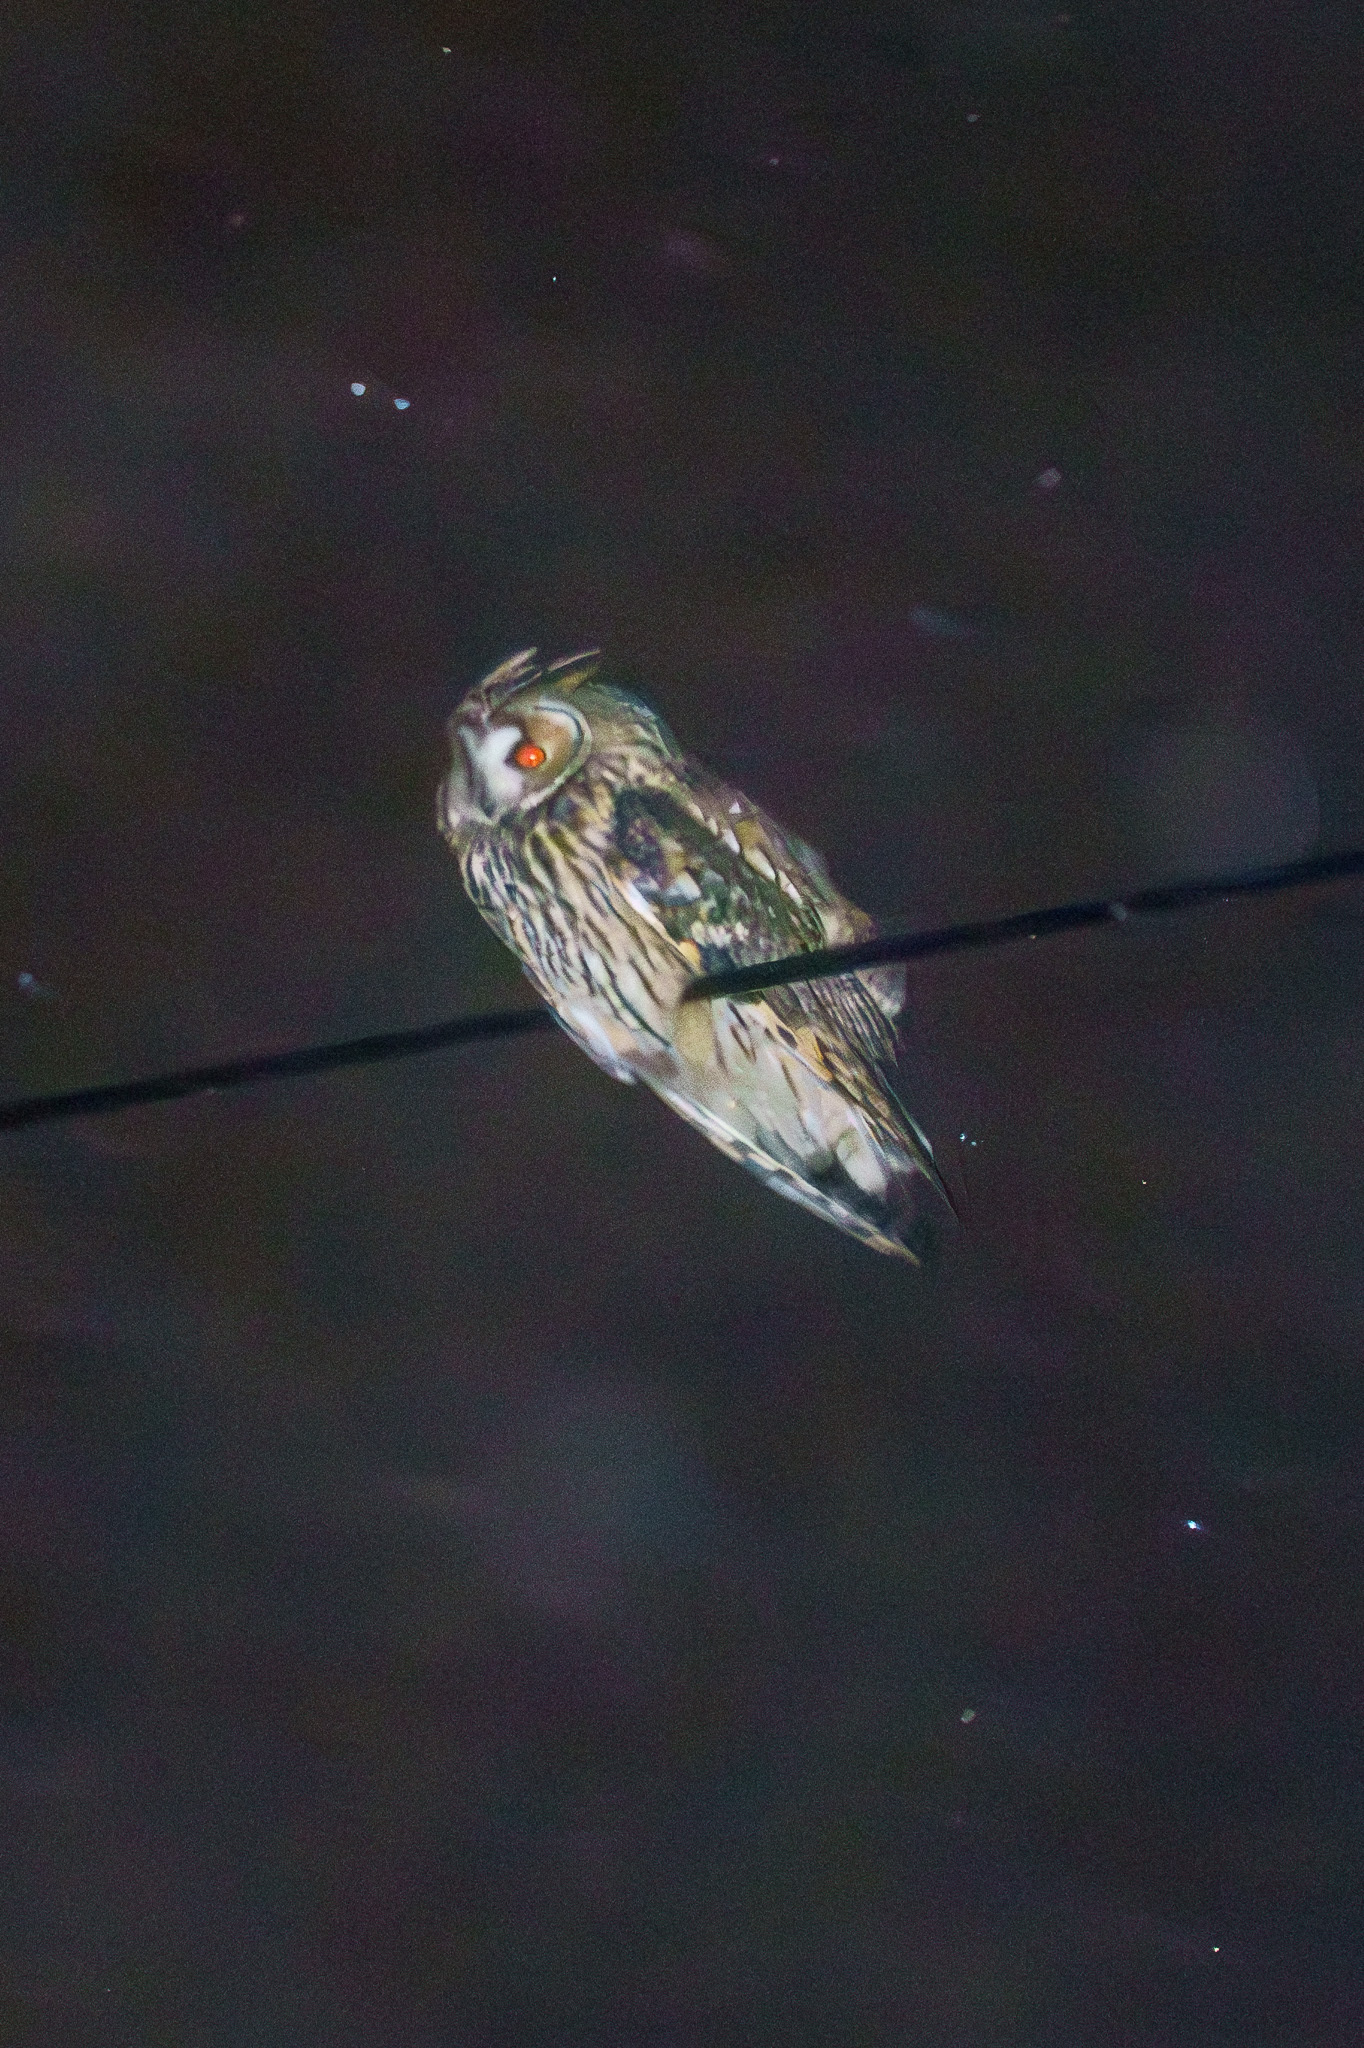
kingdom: Animalia
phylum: Chordata
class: Aves
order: Strigiformes
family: Strigidae
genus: Asio
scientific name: Asio otus
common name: Long-eared owl
